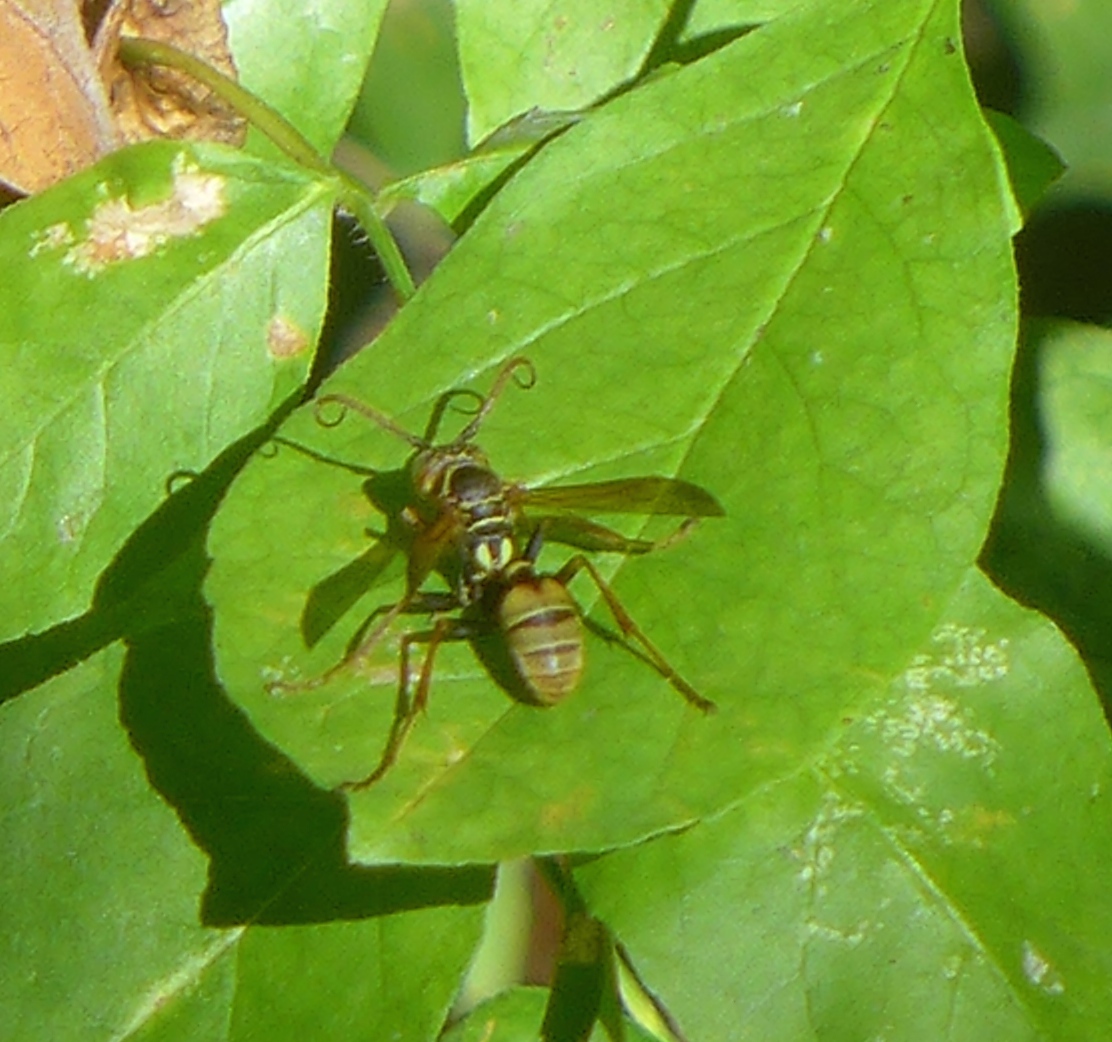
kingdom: Animalia
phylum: Arthropoda
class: Insecta
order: Hymenoptera
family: Vespidae
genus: Mischocyttarus
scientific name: Mischocyttarus flavitarsis
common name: Wasp
